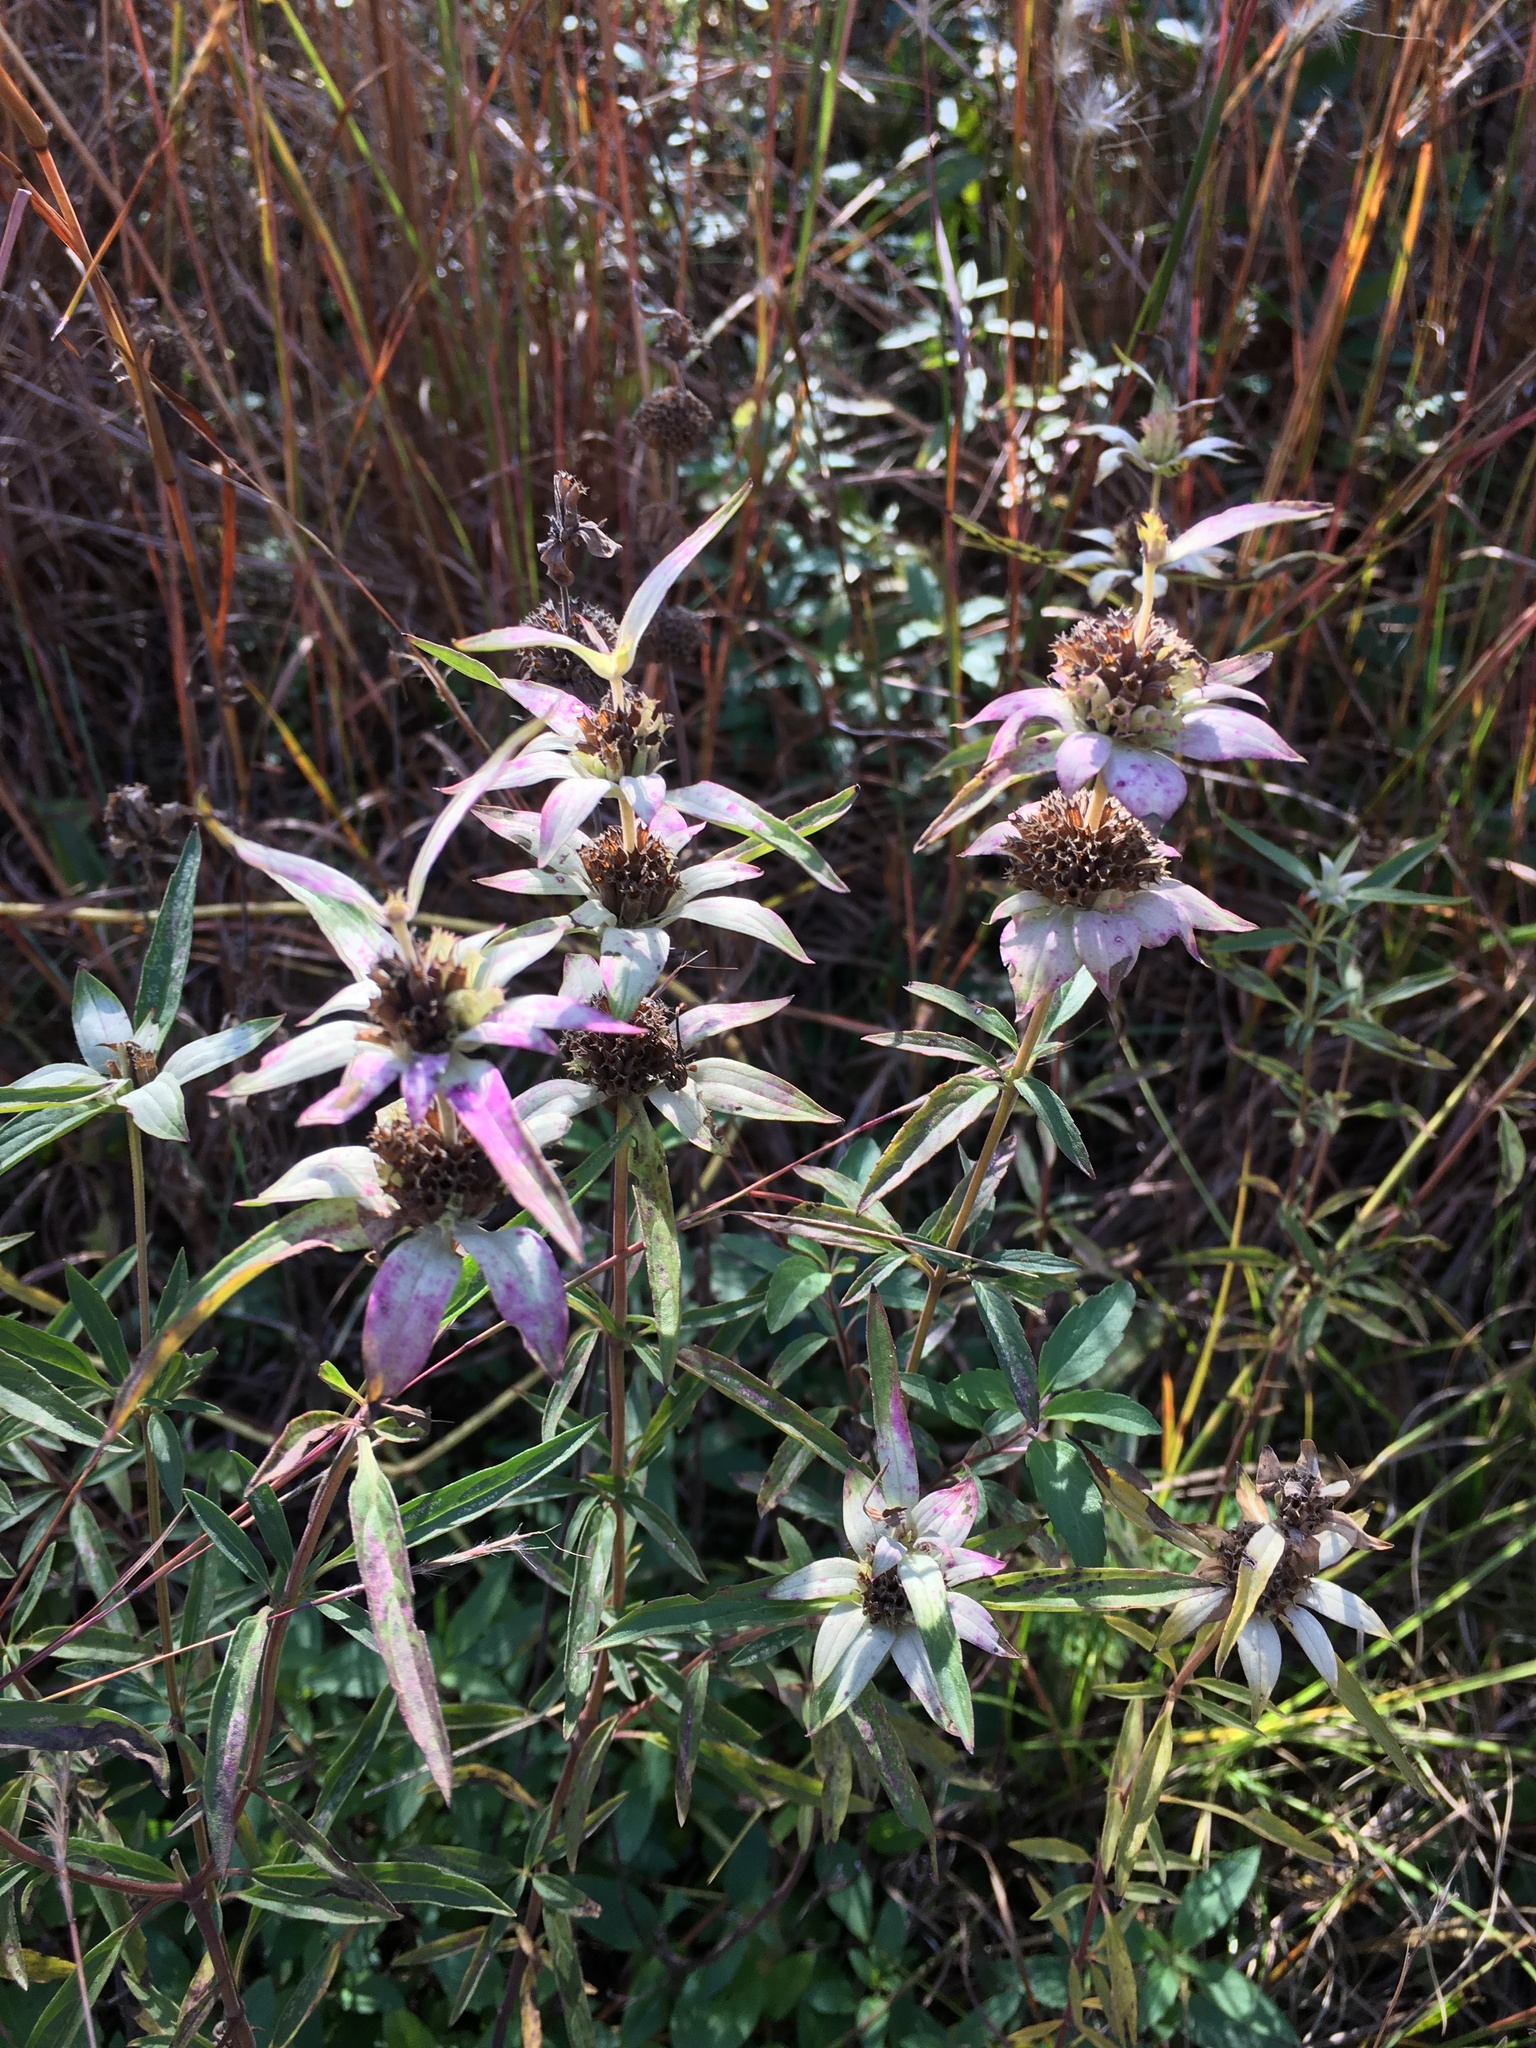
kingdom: Plantae
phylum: Tracheophyta
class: Magnoliopsida
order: Lamiales
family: Lamiaceae
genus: Monarda
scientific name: Monarda punctata
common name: Dotted monarda
